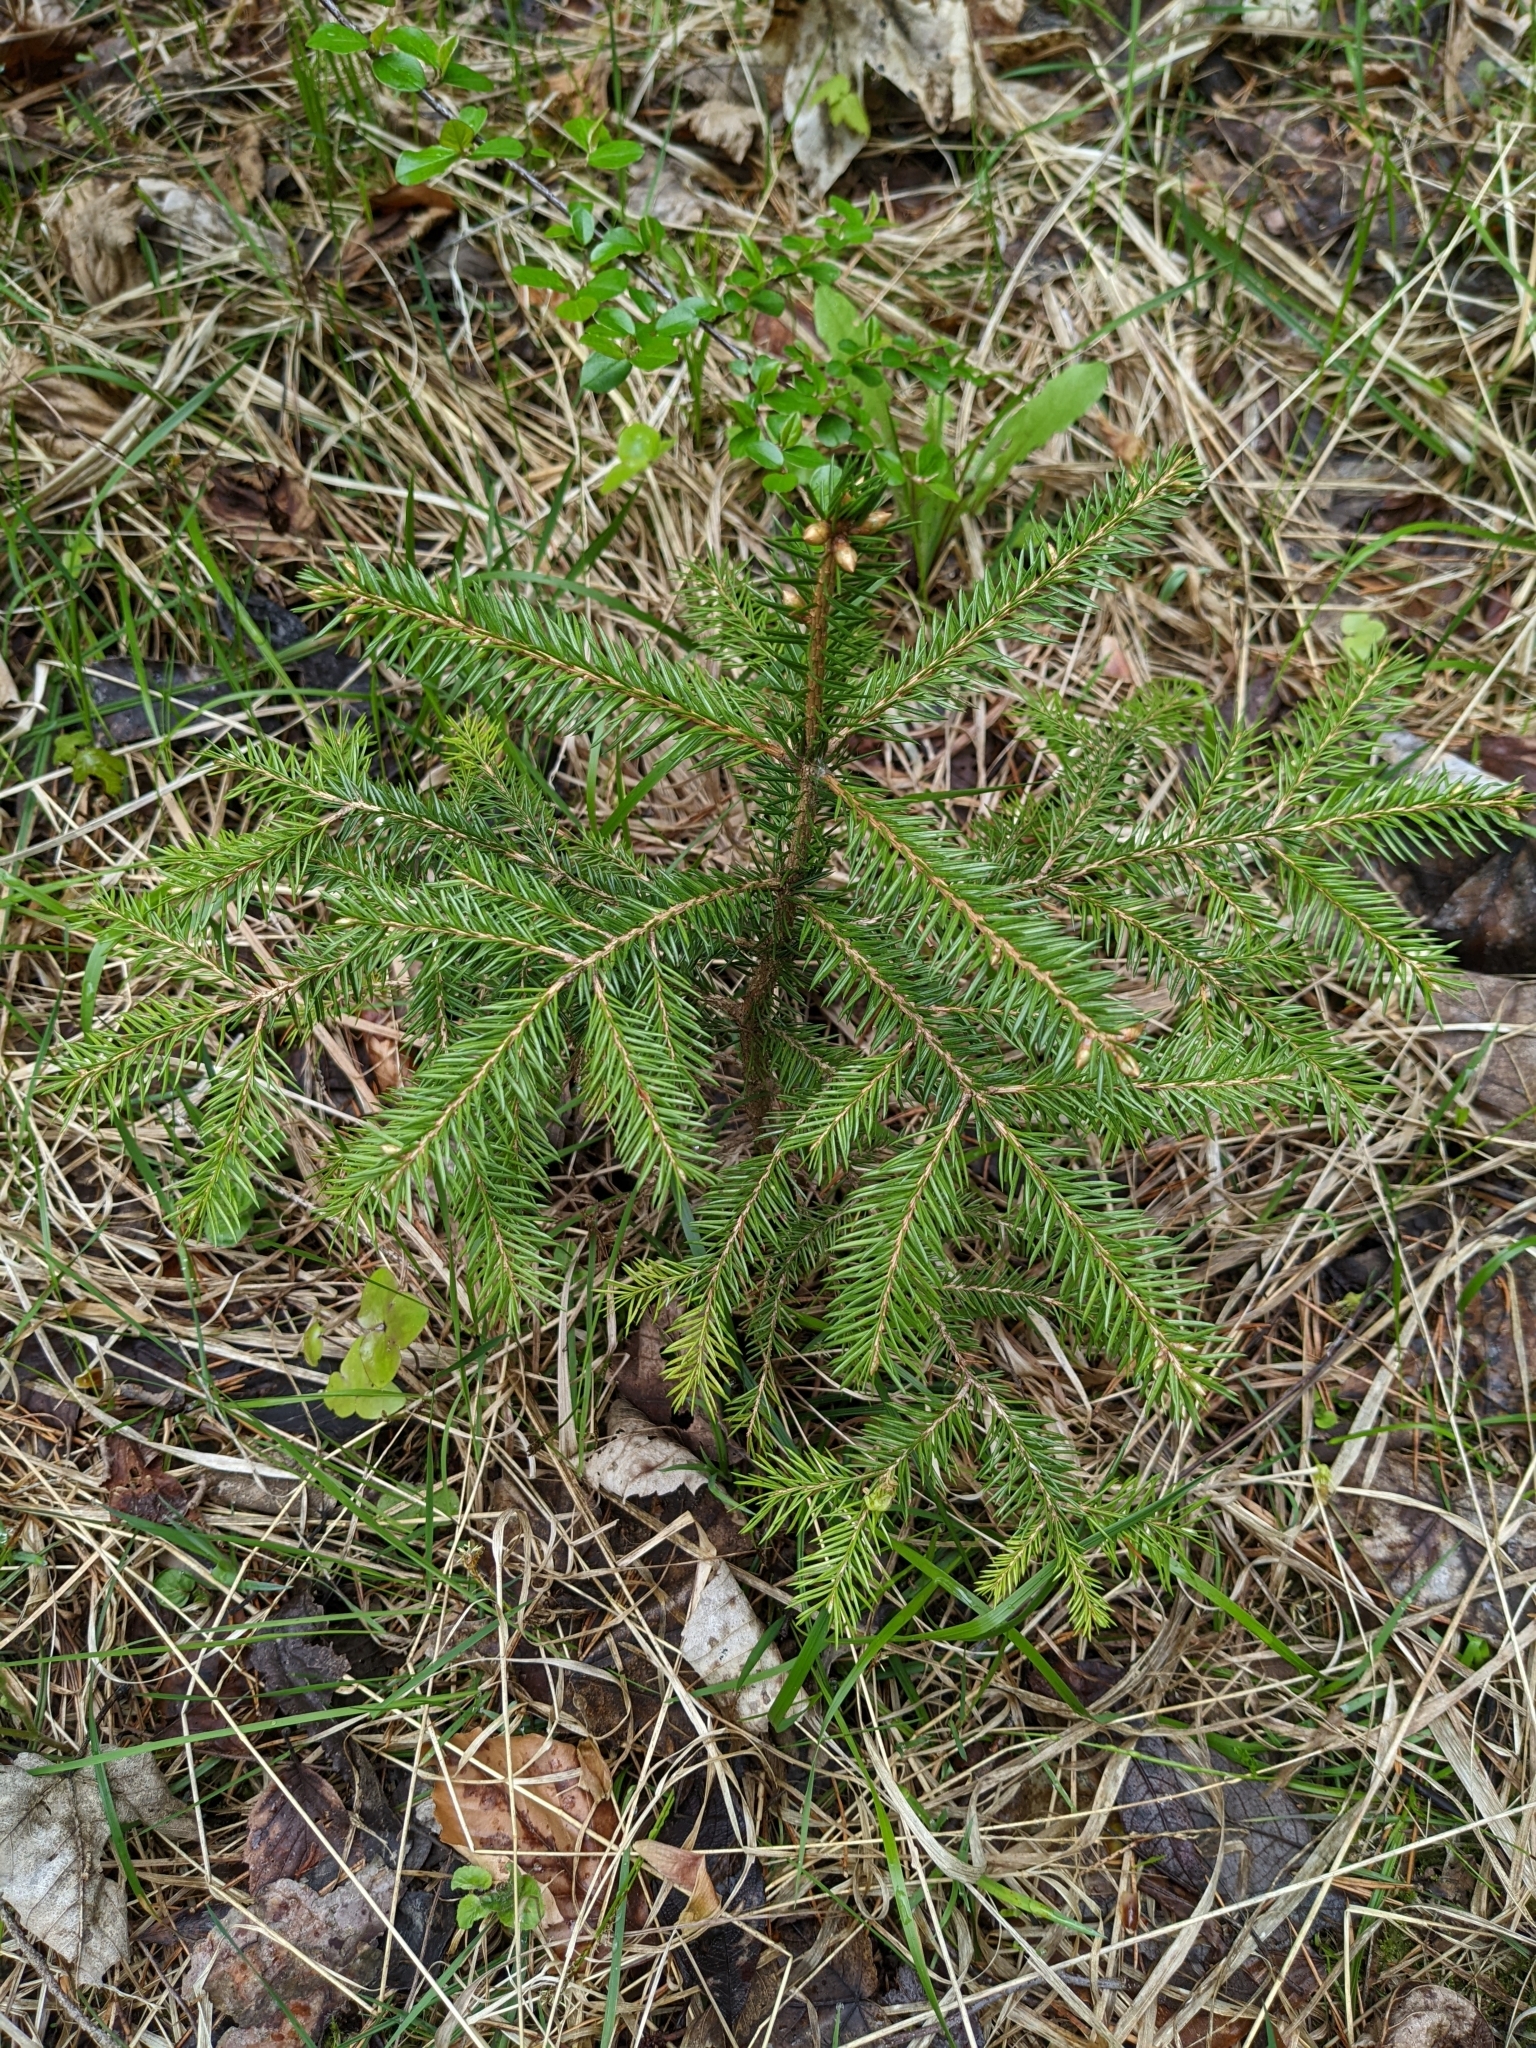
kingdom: Plantae
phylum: Tracheophyta
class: Pinopsida
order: Pinales
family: Pinaceae
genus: Picea
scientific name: Picea abies
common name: Norway spruce
